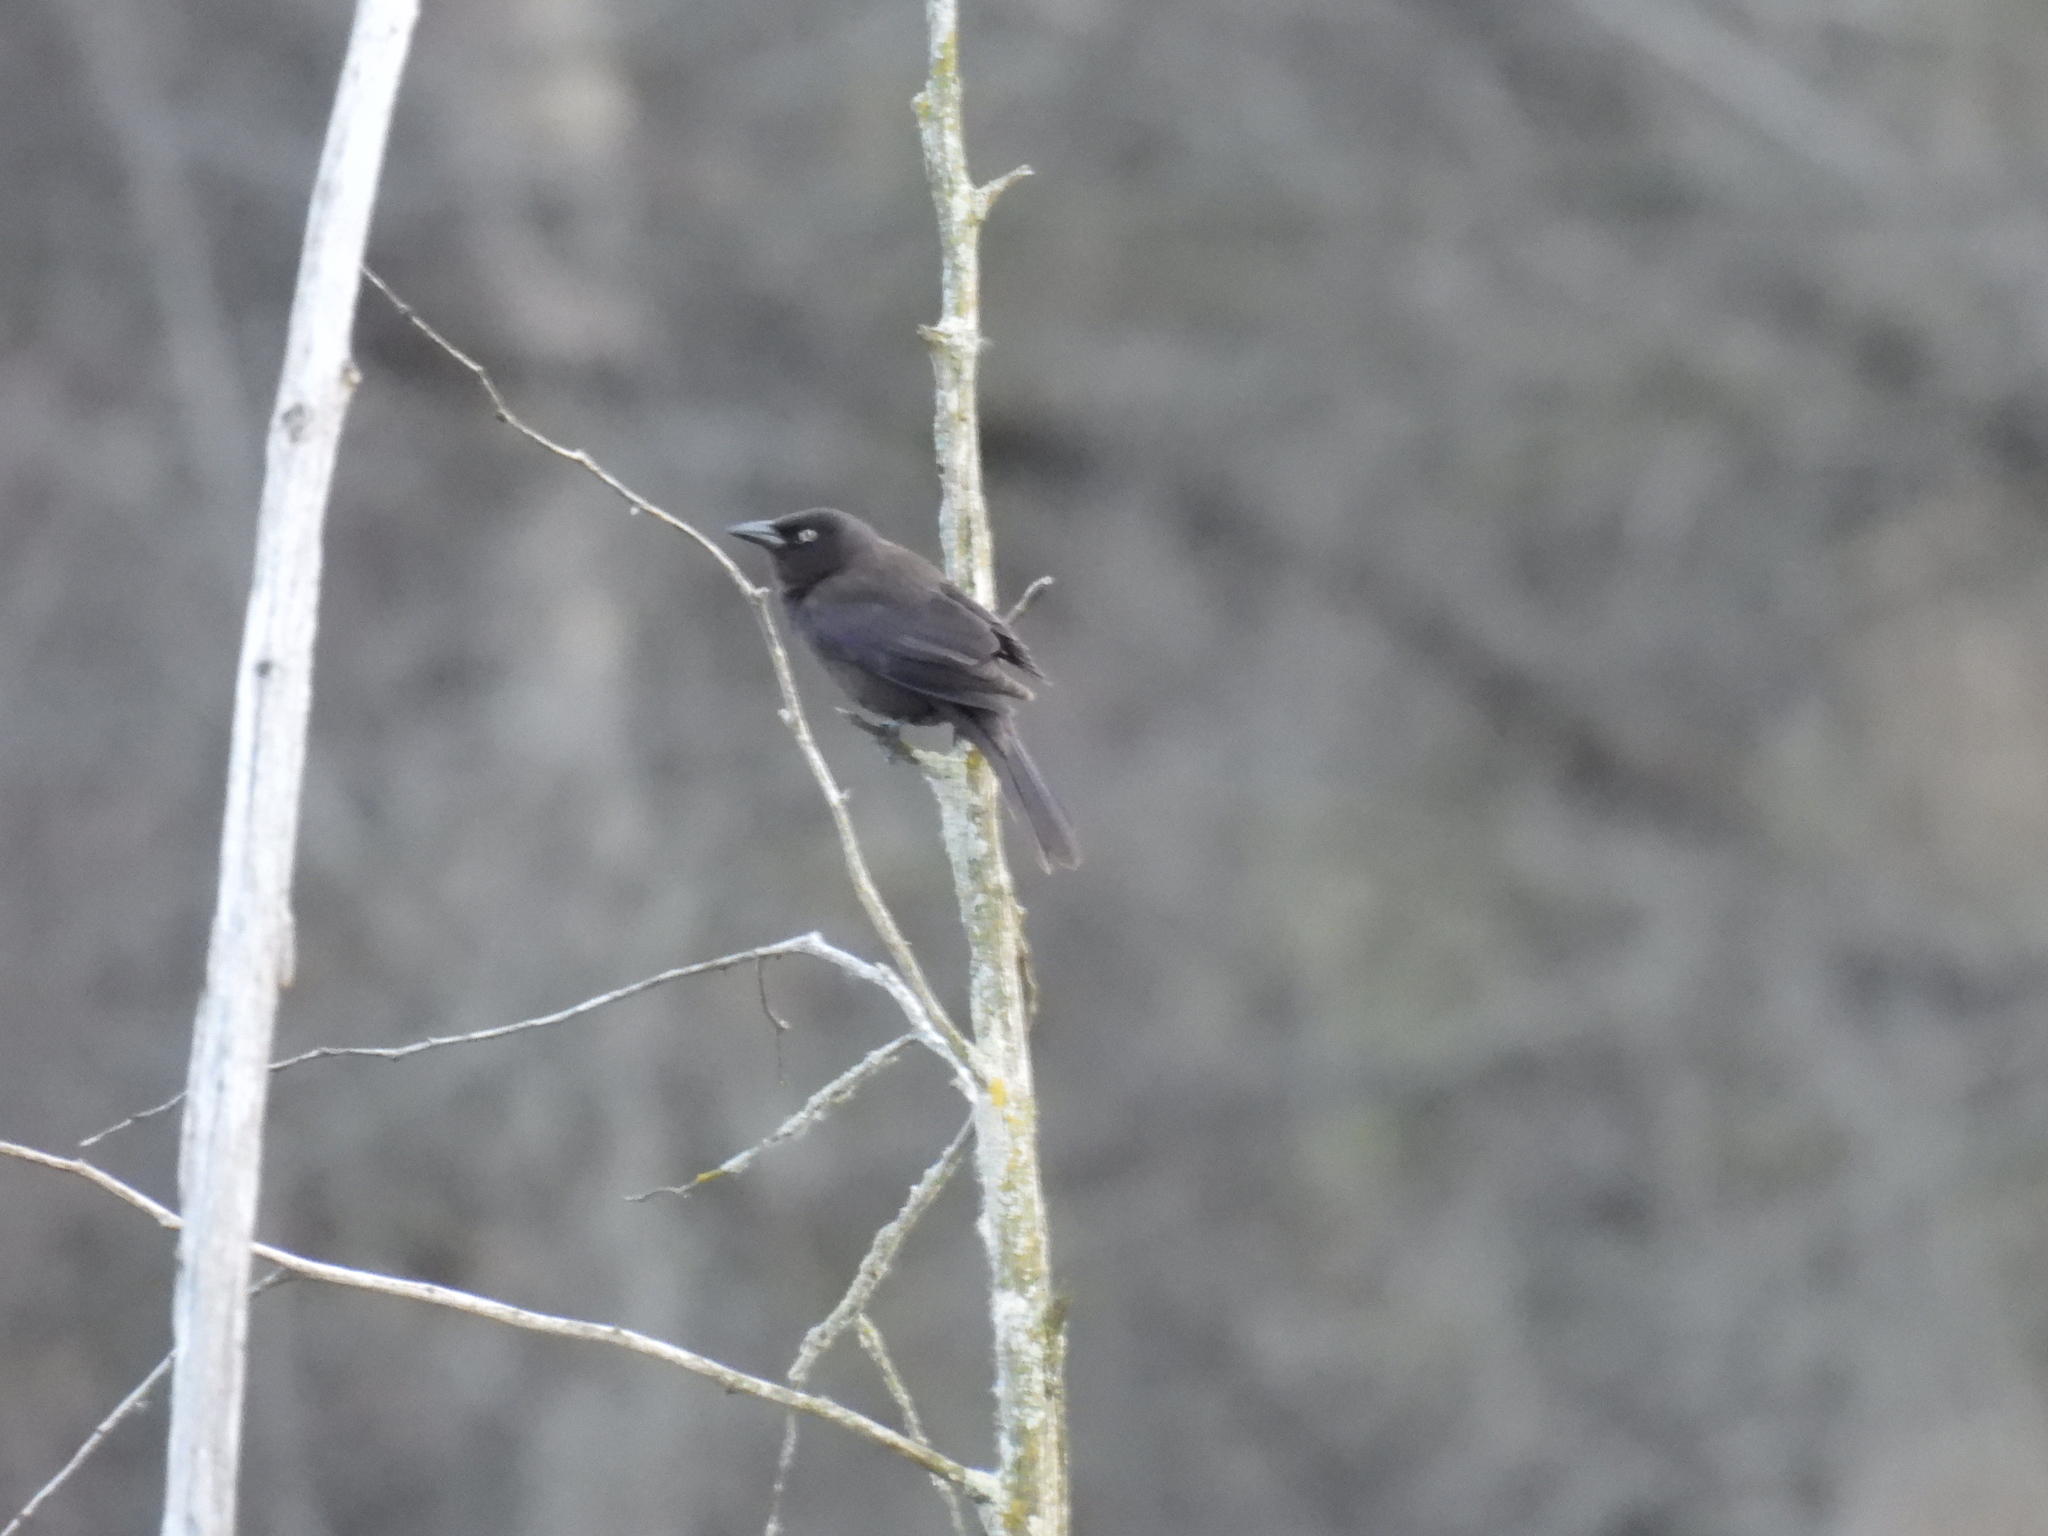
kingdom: Animalia
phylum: Chordata
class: Aves
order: Passeriformes
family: Icteridae
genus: Euphagus
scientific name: Euphagus carolinus
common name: Rusty blackbird
